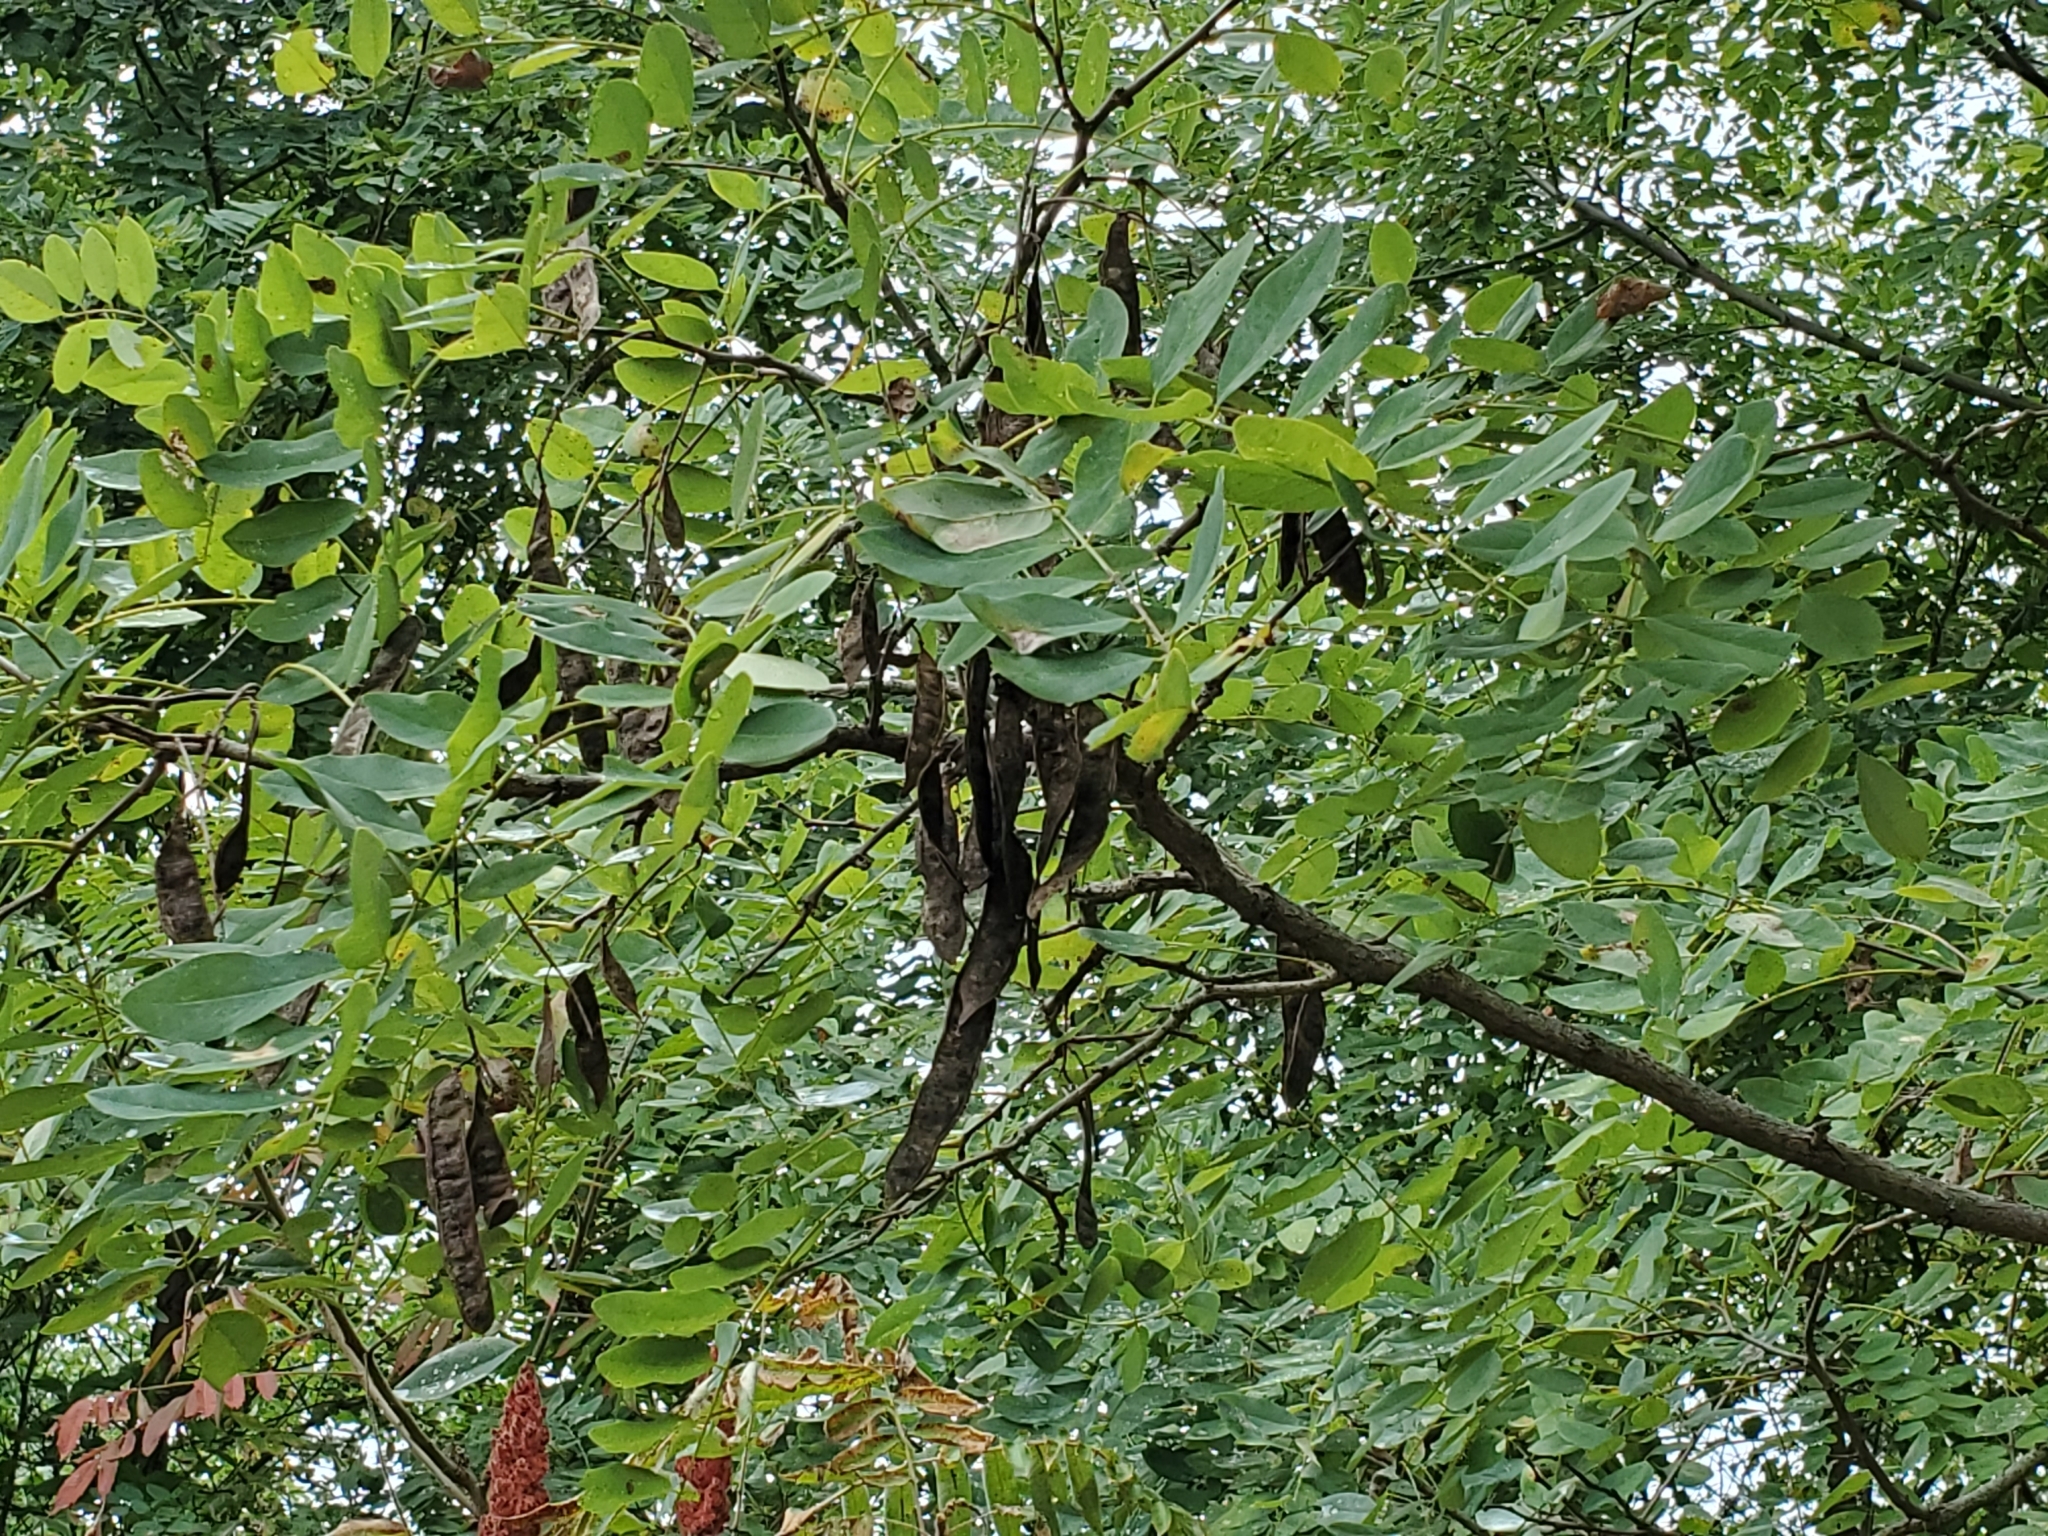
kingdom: Plantae
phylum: Tracheophyta
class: Magnoliopsida
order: Fabales
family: Fabaceae
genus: Robinia
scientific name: Robinia pseudoacacia
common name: Black locust
